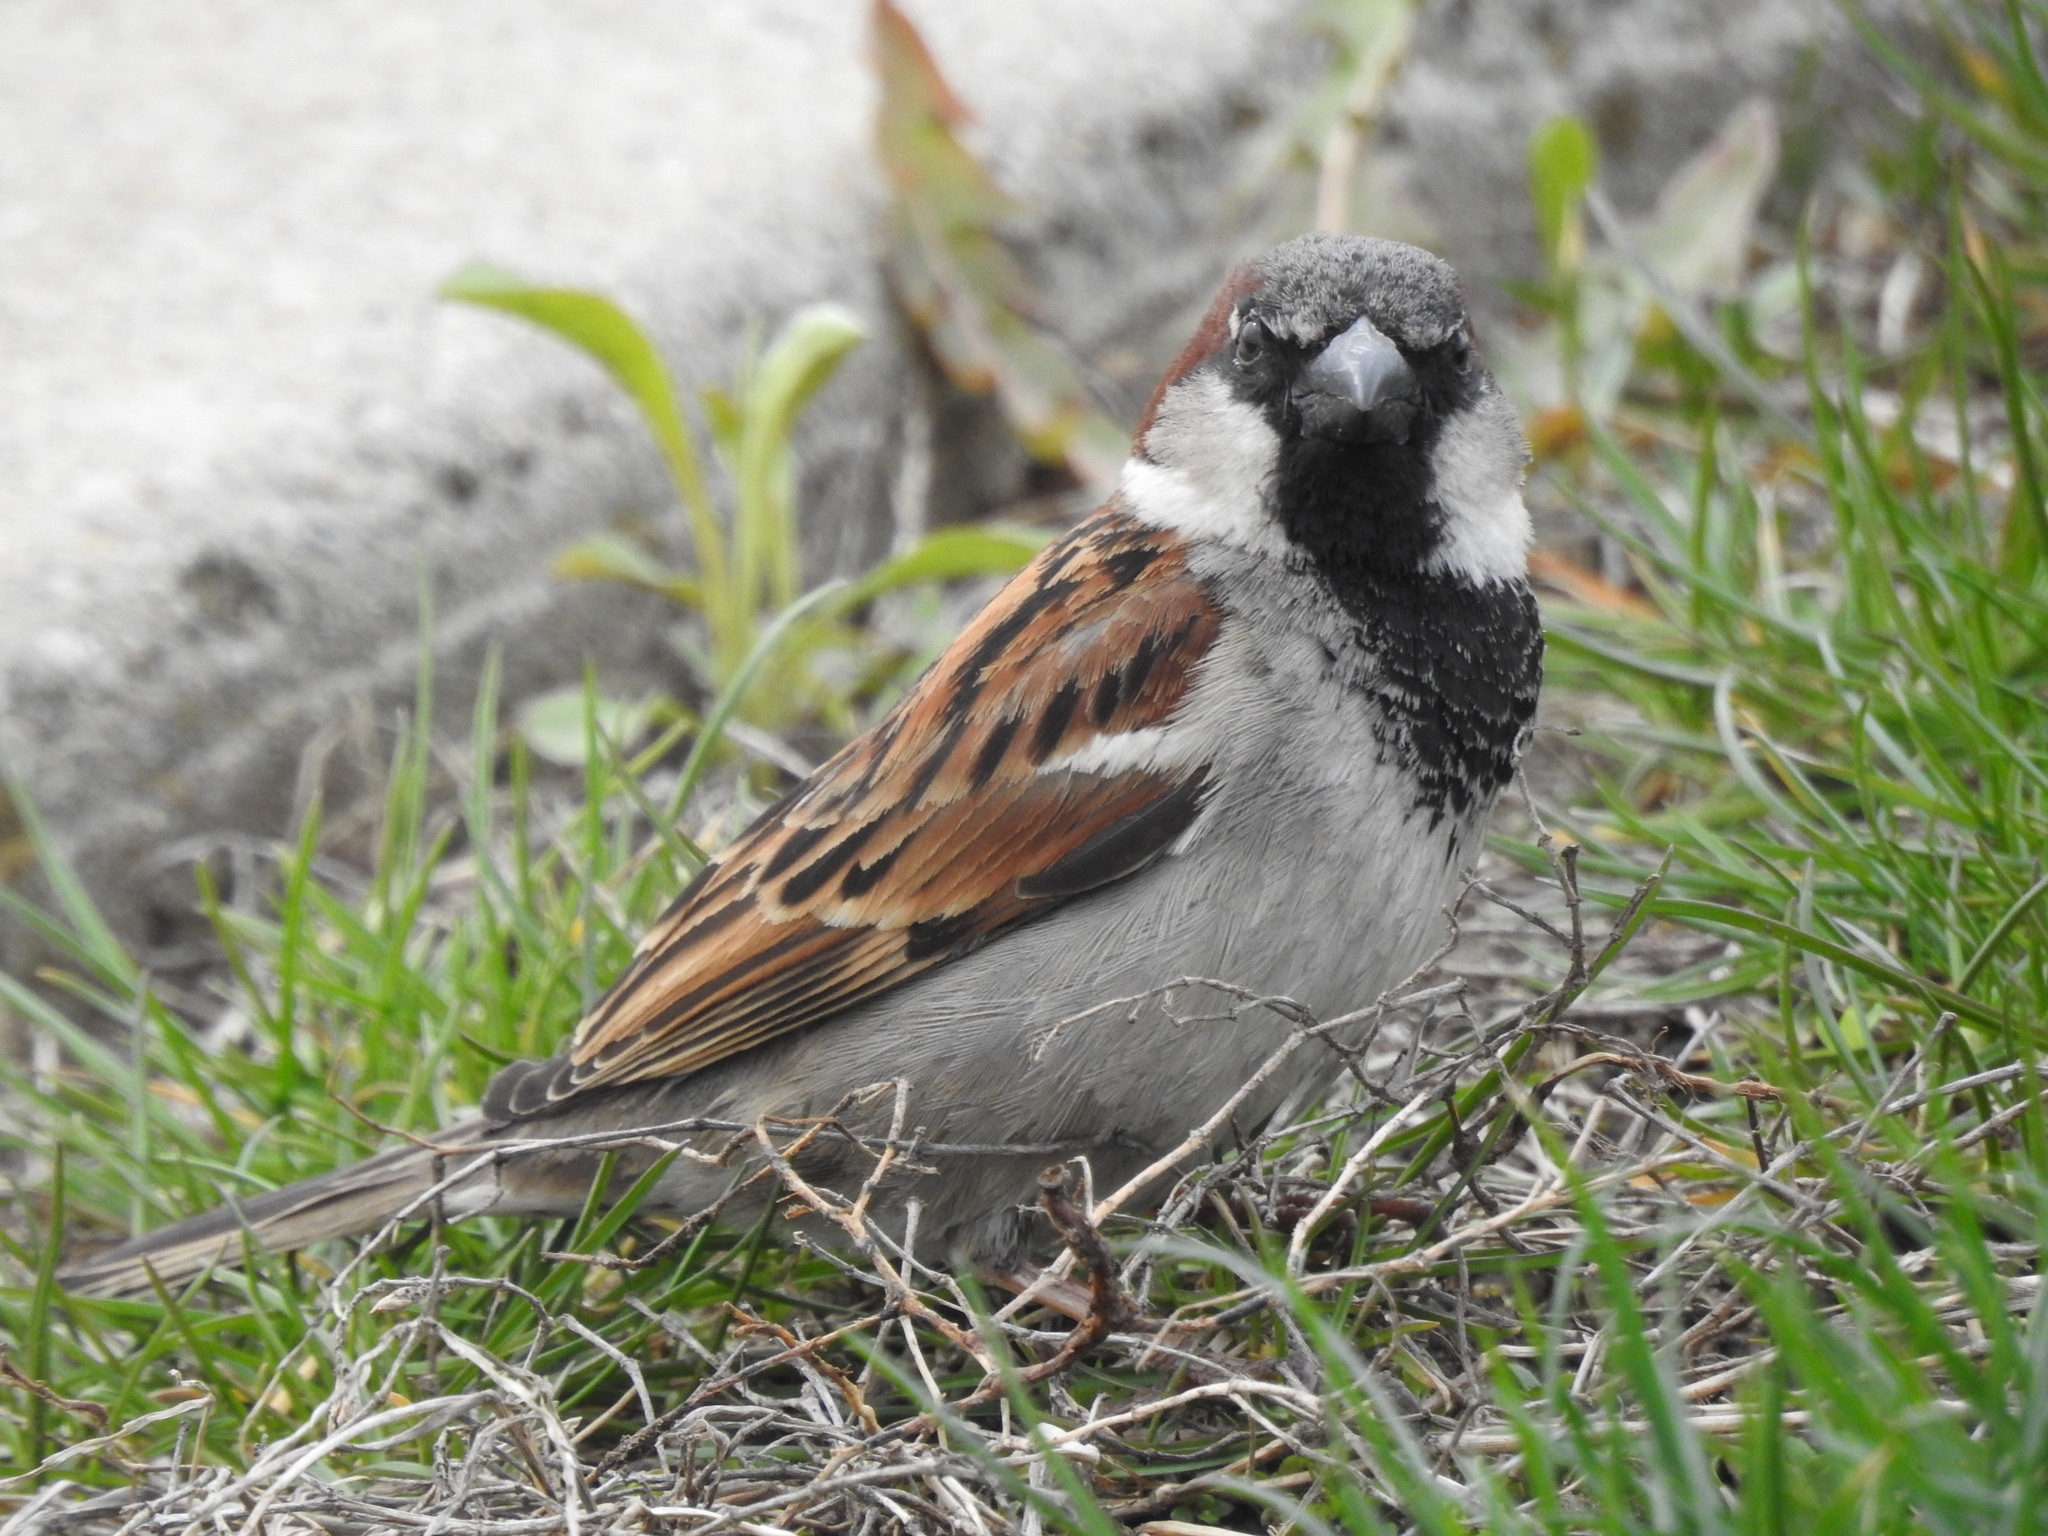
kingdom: Animalia
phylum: Chordata
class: Aves
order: Passeriformes
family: Passeridae
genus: Passer
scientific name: Passer domesticus
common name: House sparrow
